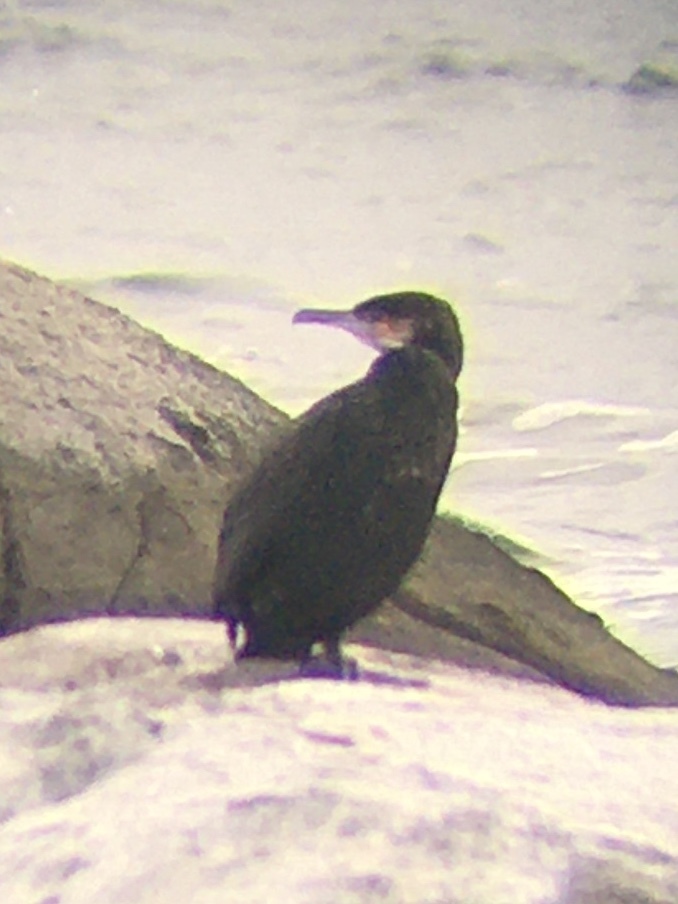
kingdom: Animalia
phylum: Chordata
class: Aves
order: Suliformes
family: Phalacrocoracidae
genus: Phalacrocorax
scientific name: Phalacrocorax carbo
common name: Great cormorant
